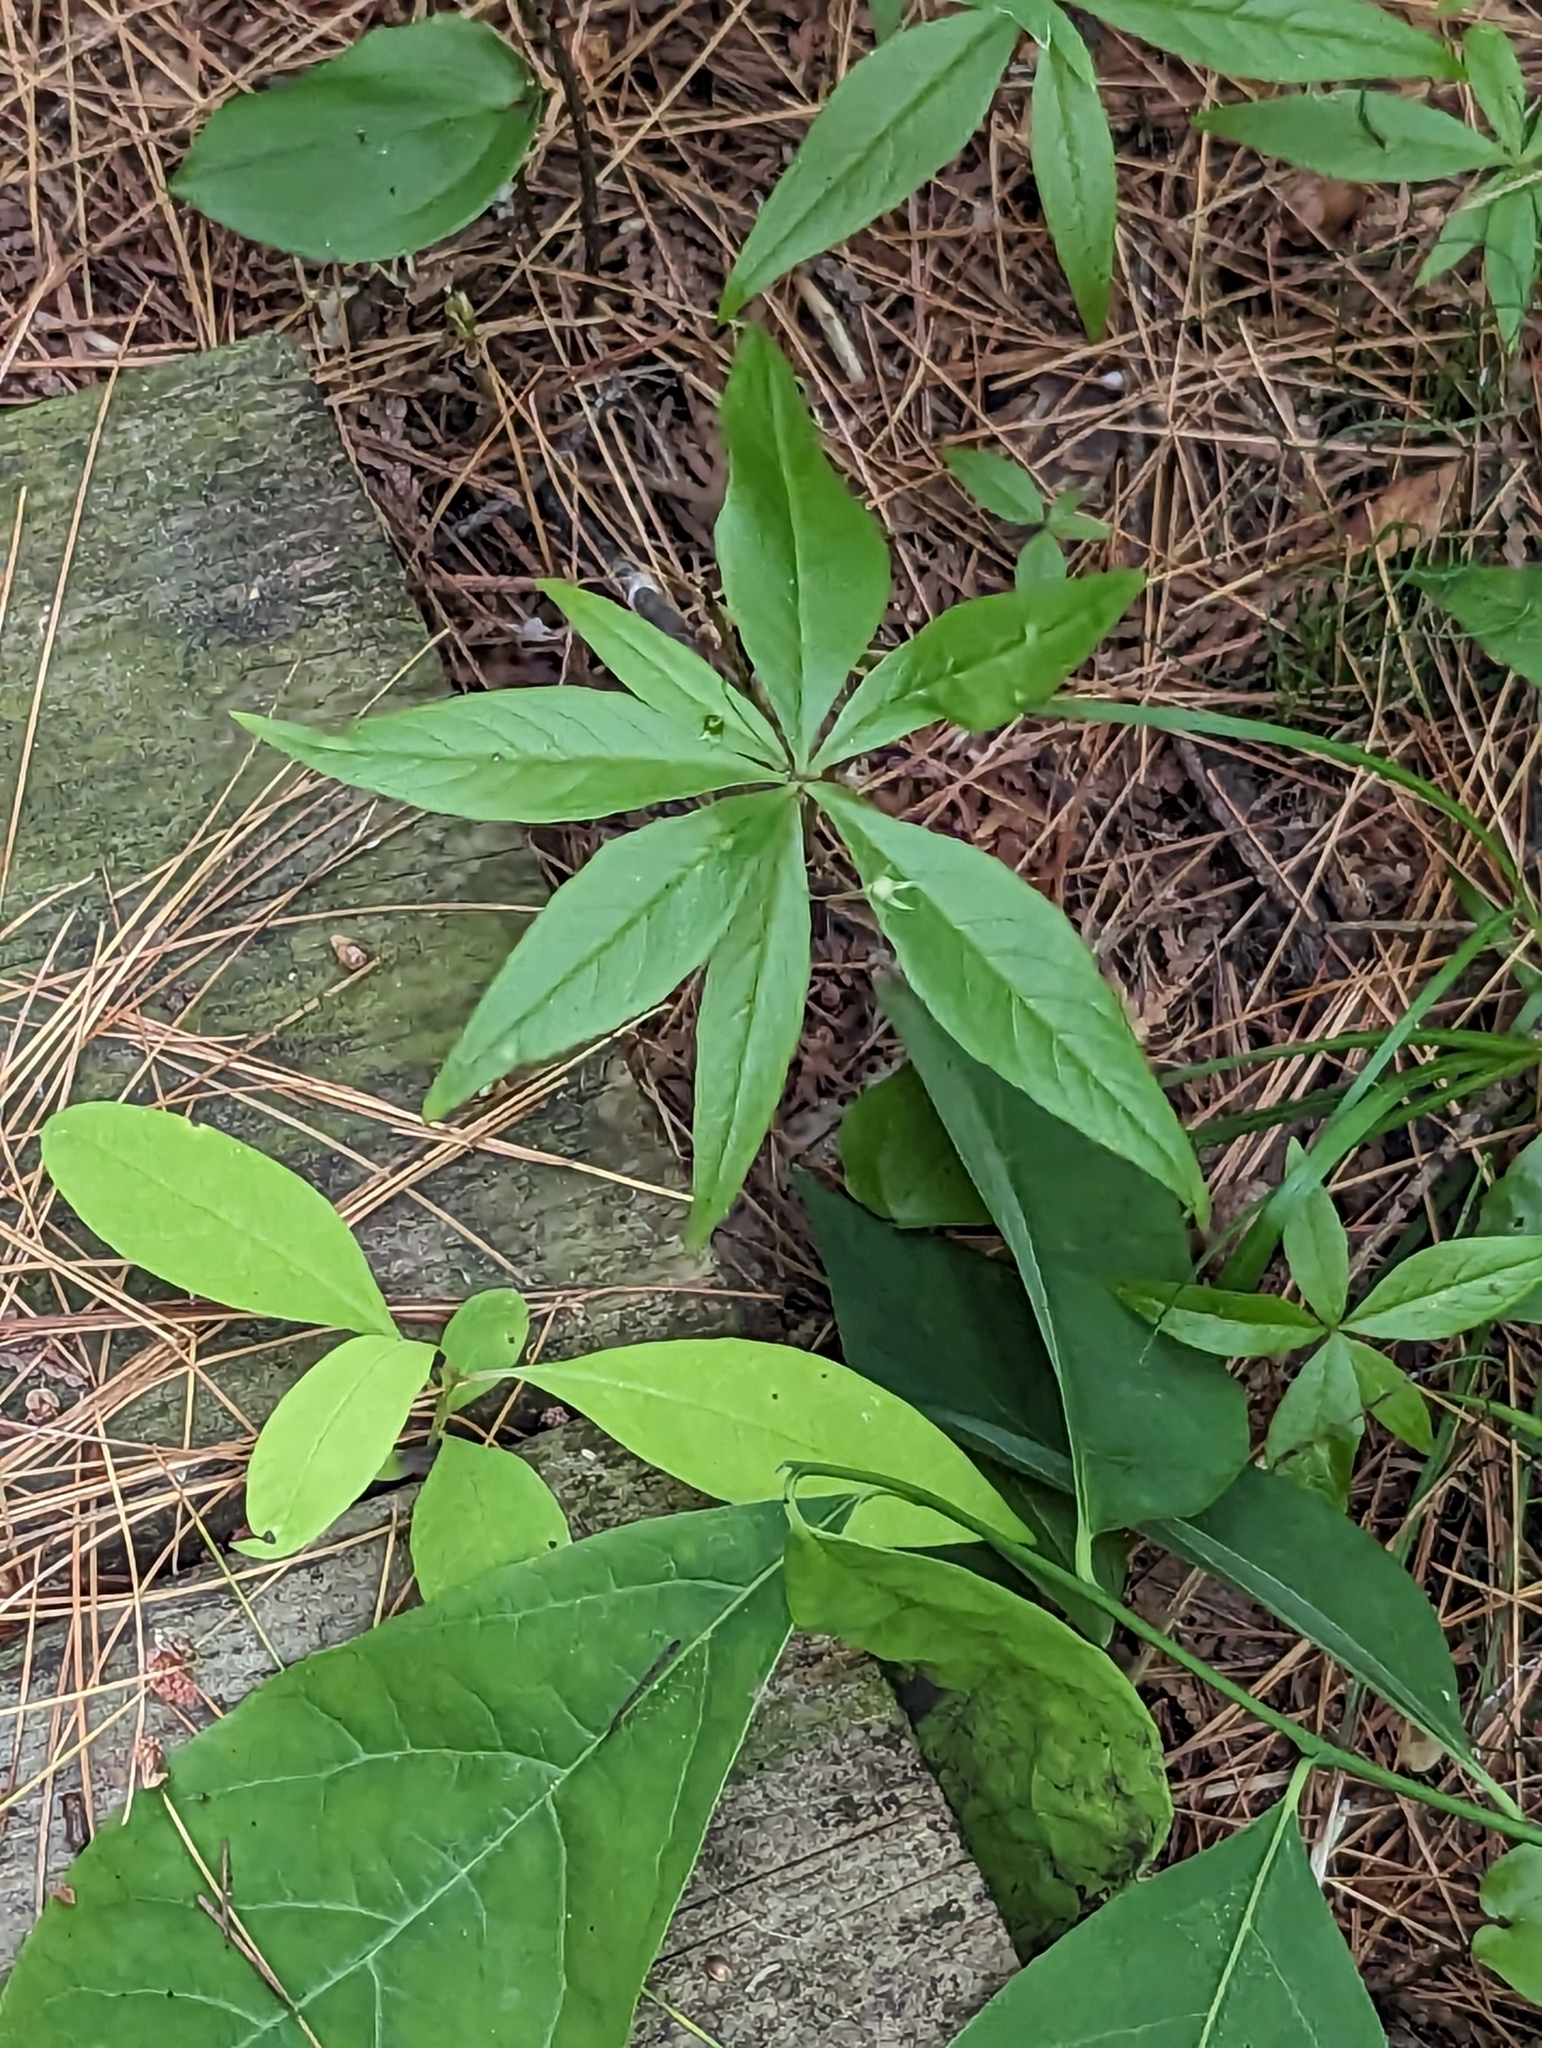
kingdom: Plantae
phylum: Tracheophyta
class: Magnoliopsida
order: Ericales
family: Primulaceae
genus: Lysimachia
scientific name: Lysimachia borealis
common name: American starflower
